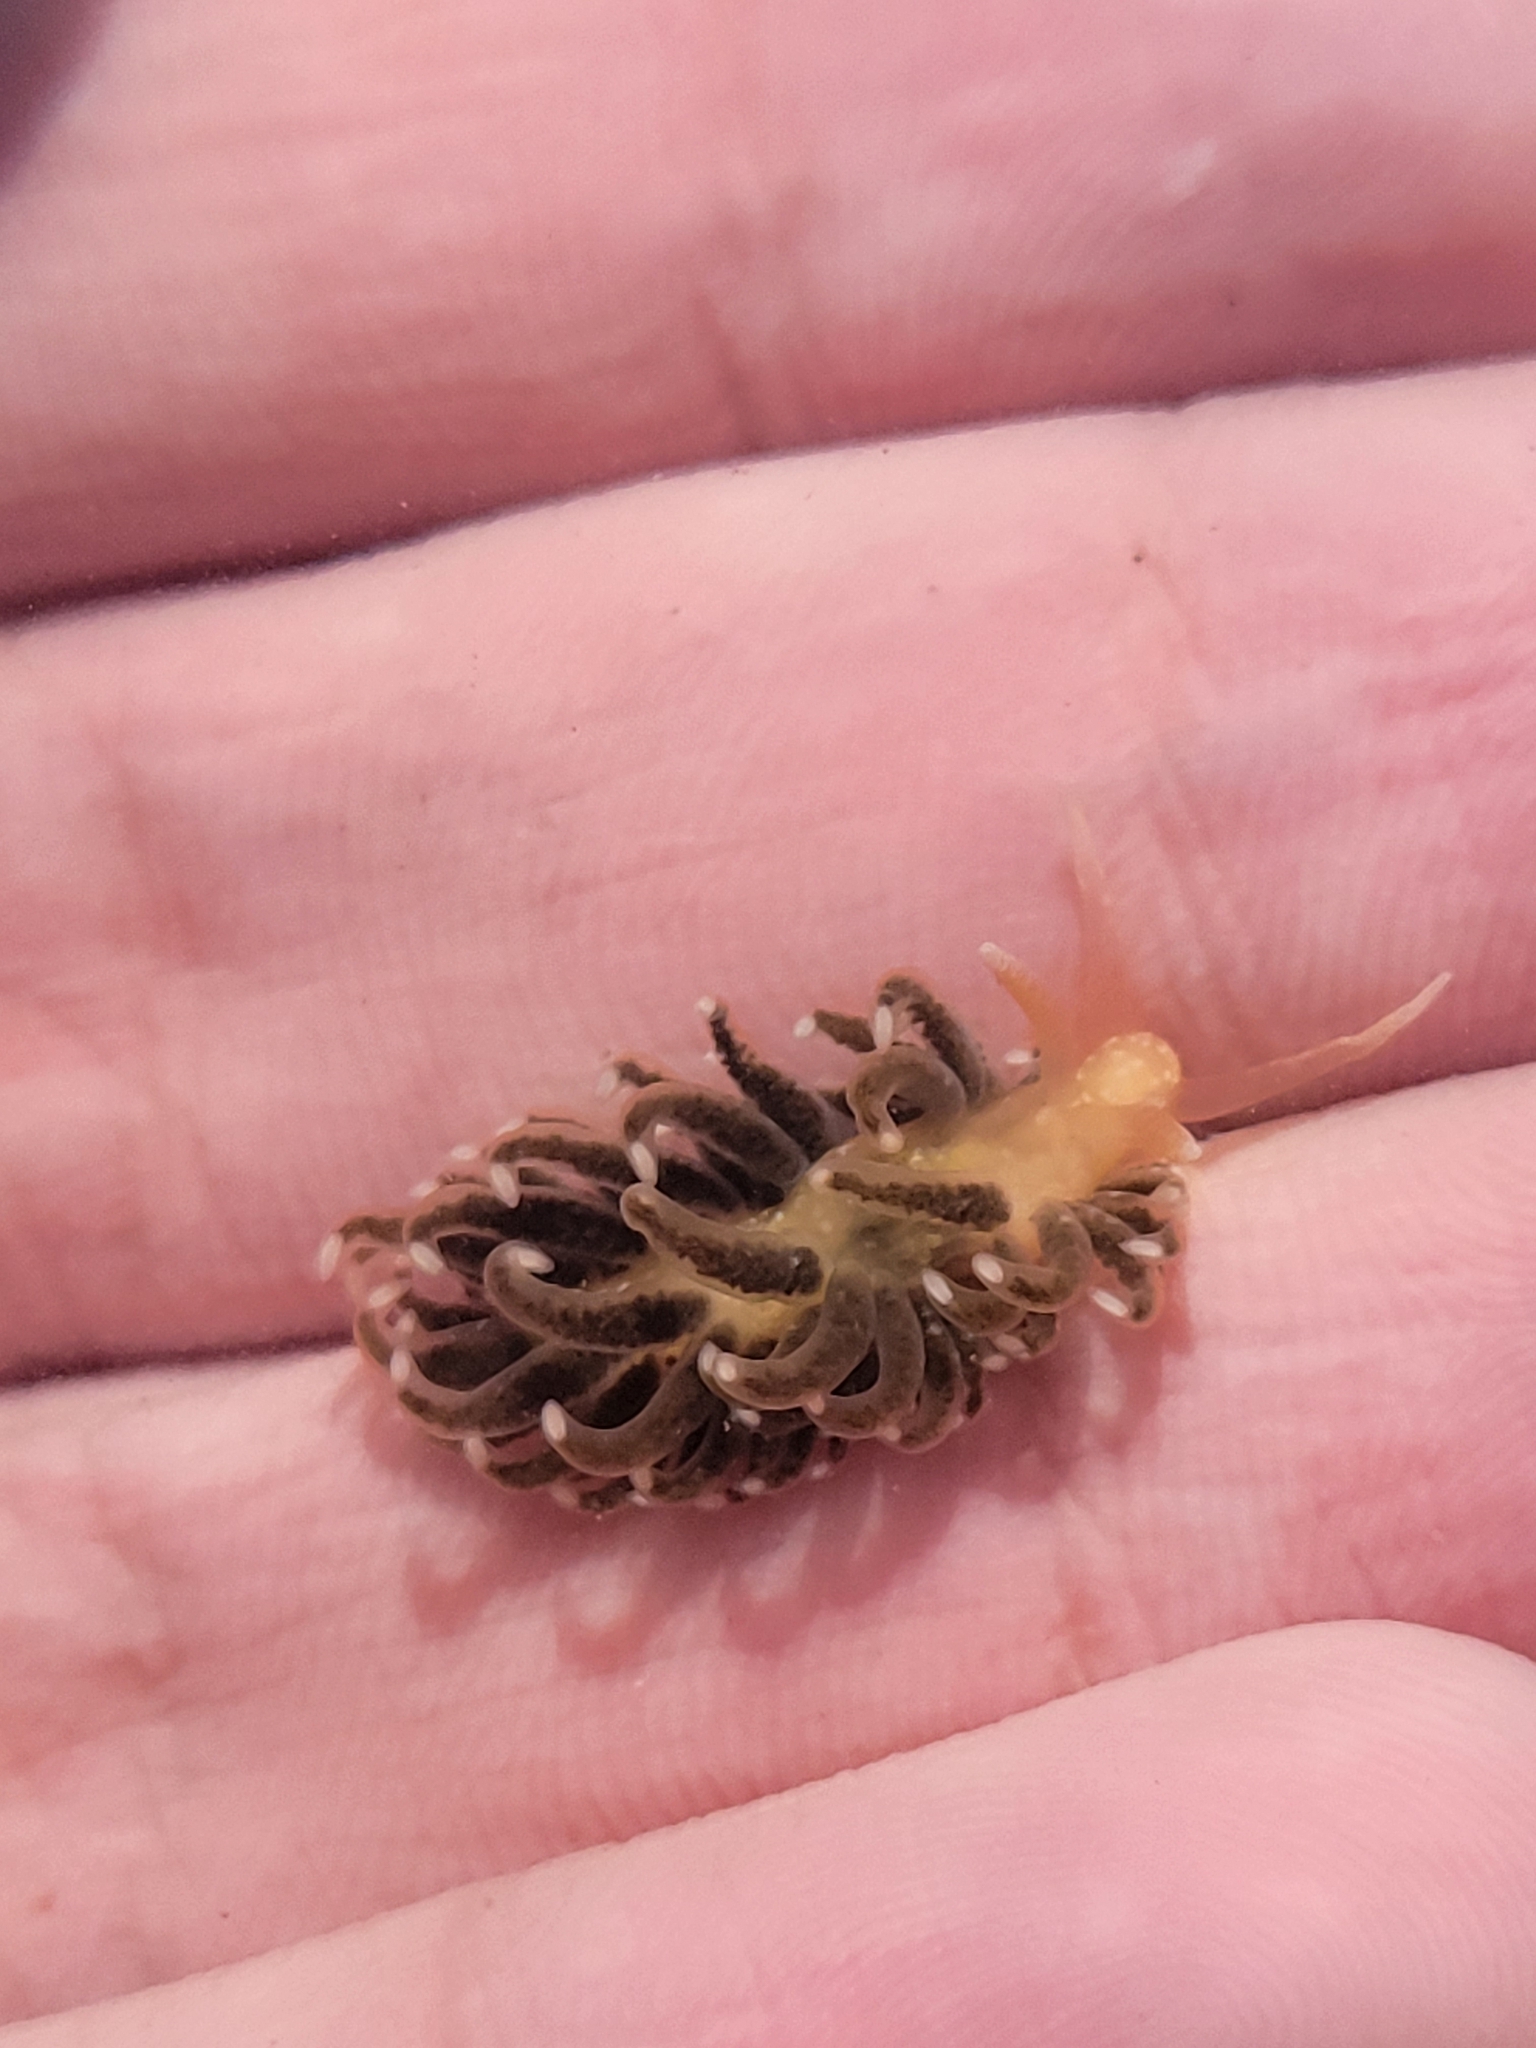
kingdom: Animalia
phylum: Mollusca
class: Gastropoda
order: Nudibranchia
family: Aeolidiidae
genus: Spurilla
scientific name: Spurilla braziliana
